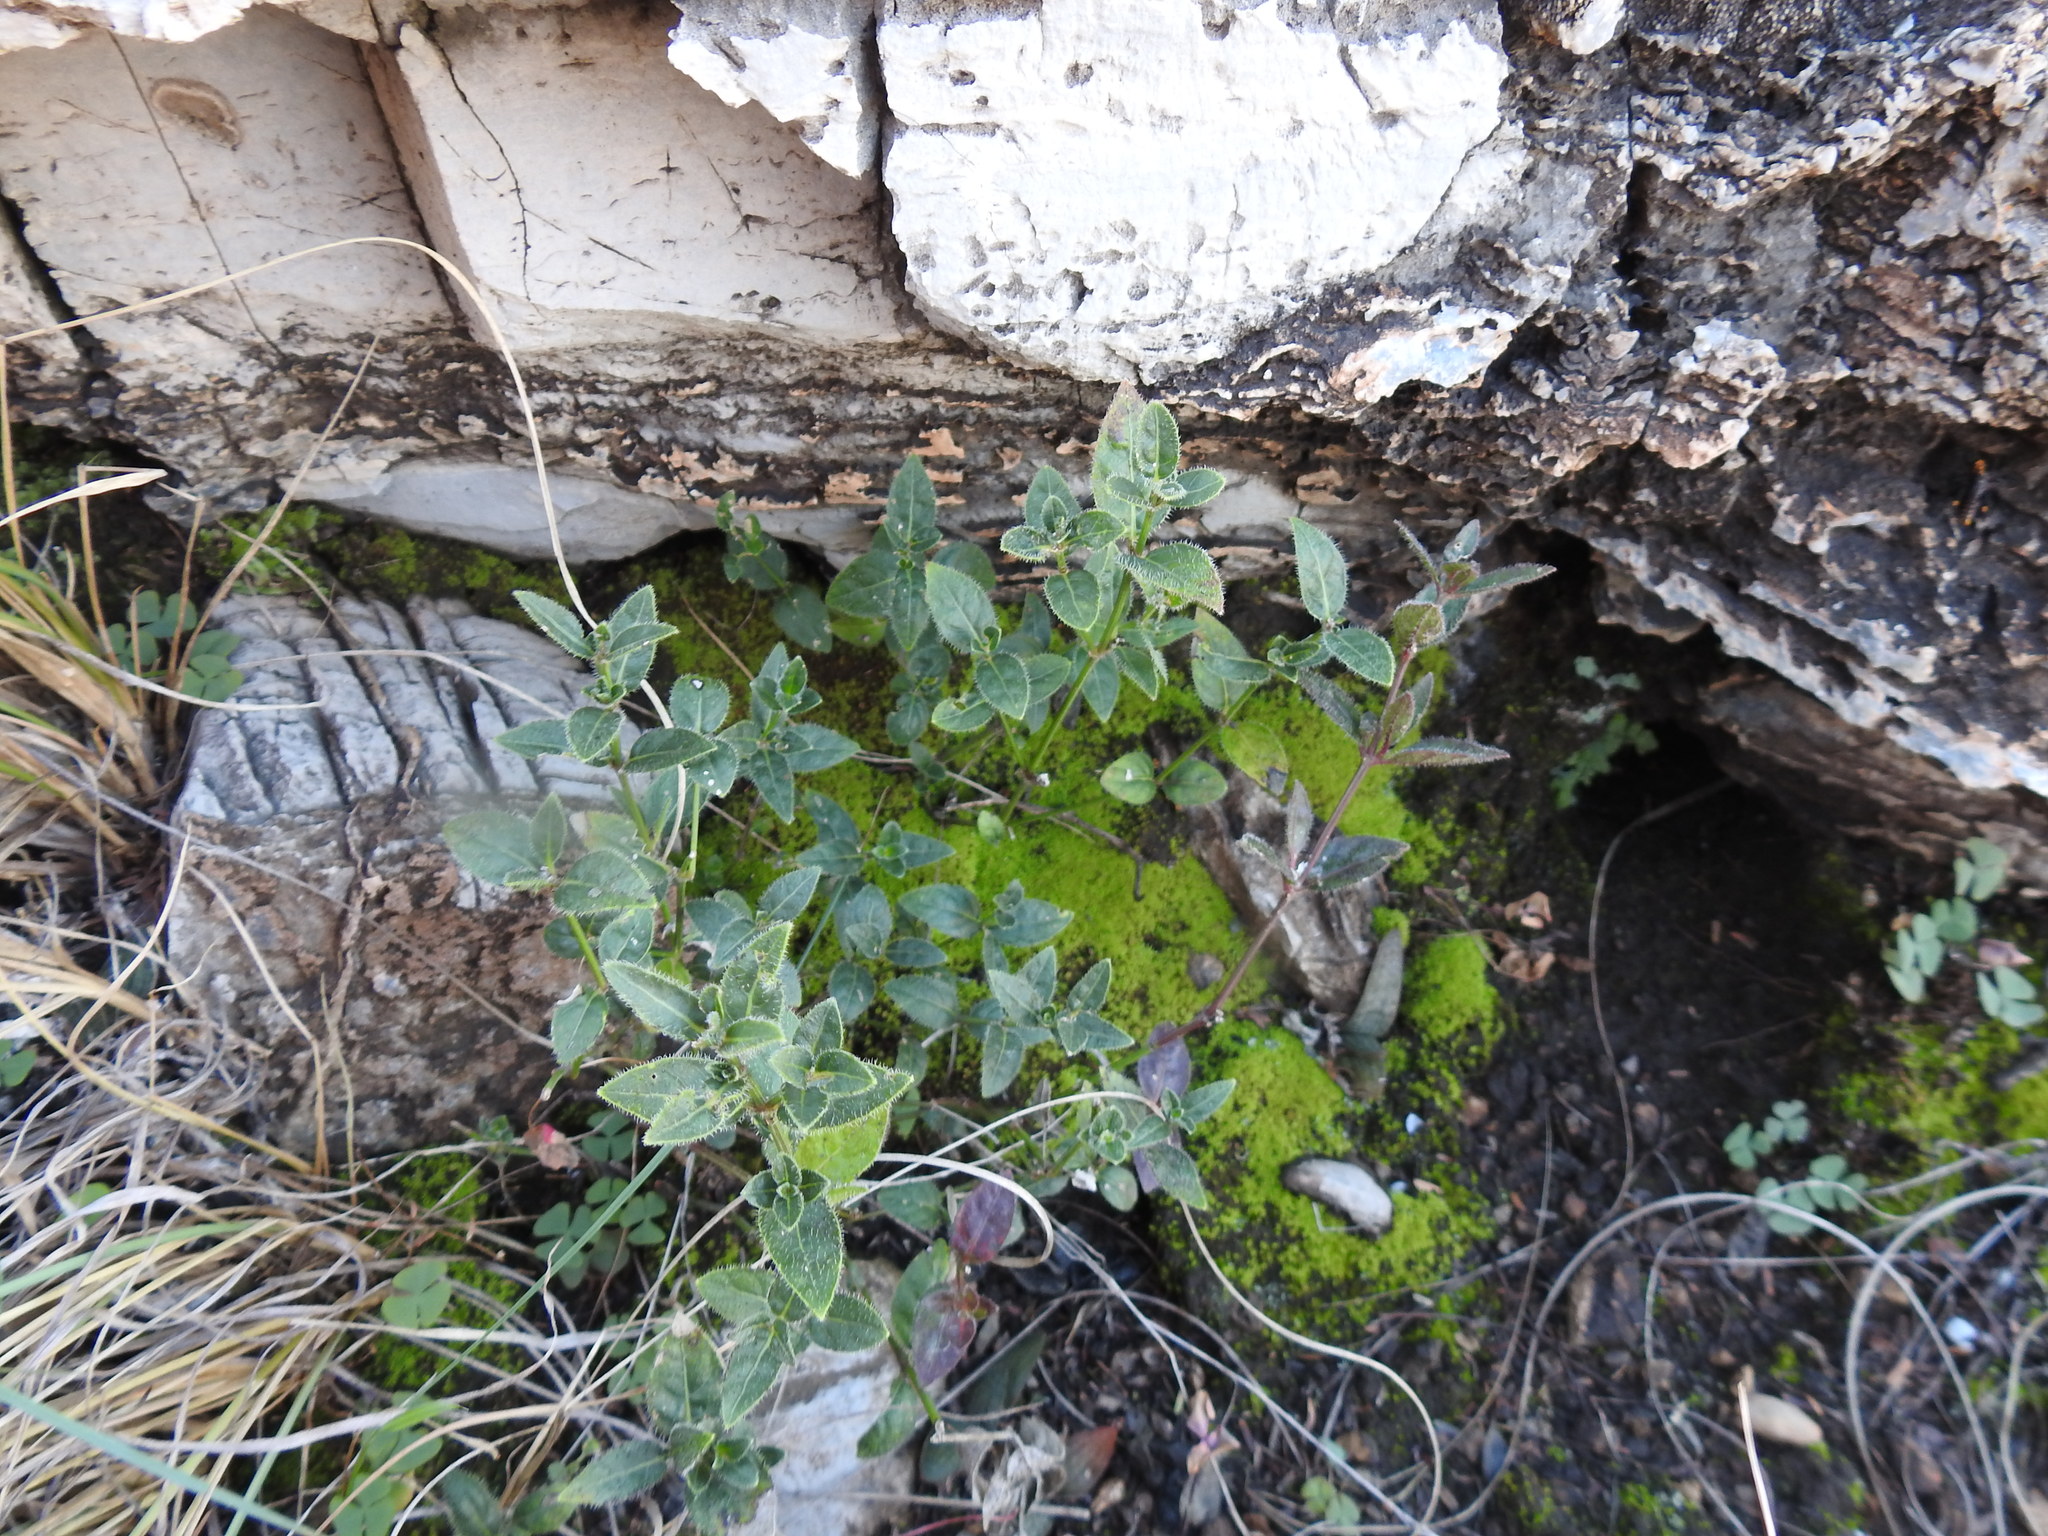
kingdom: Plantae
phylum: Tracheophyta
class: Magnoliopsida
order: Lamiales
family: Acanthaceae
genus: Ruellia
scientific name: Ruellia patula
